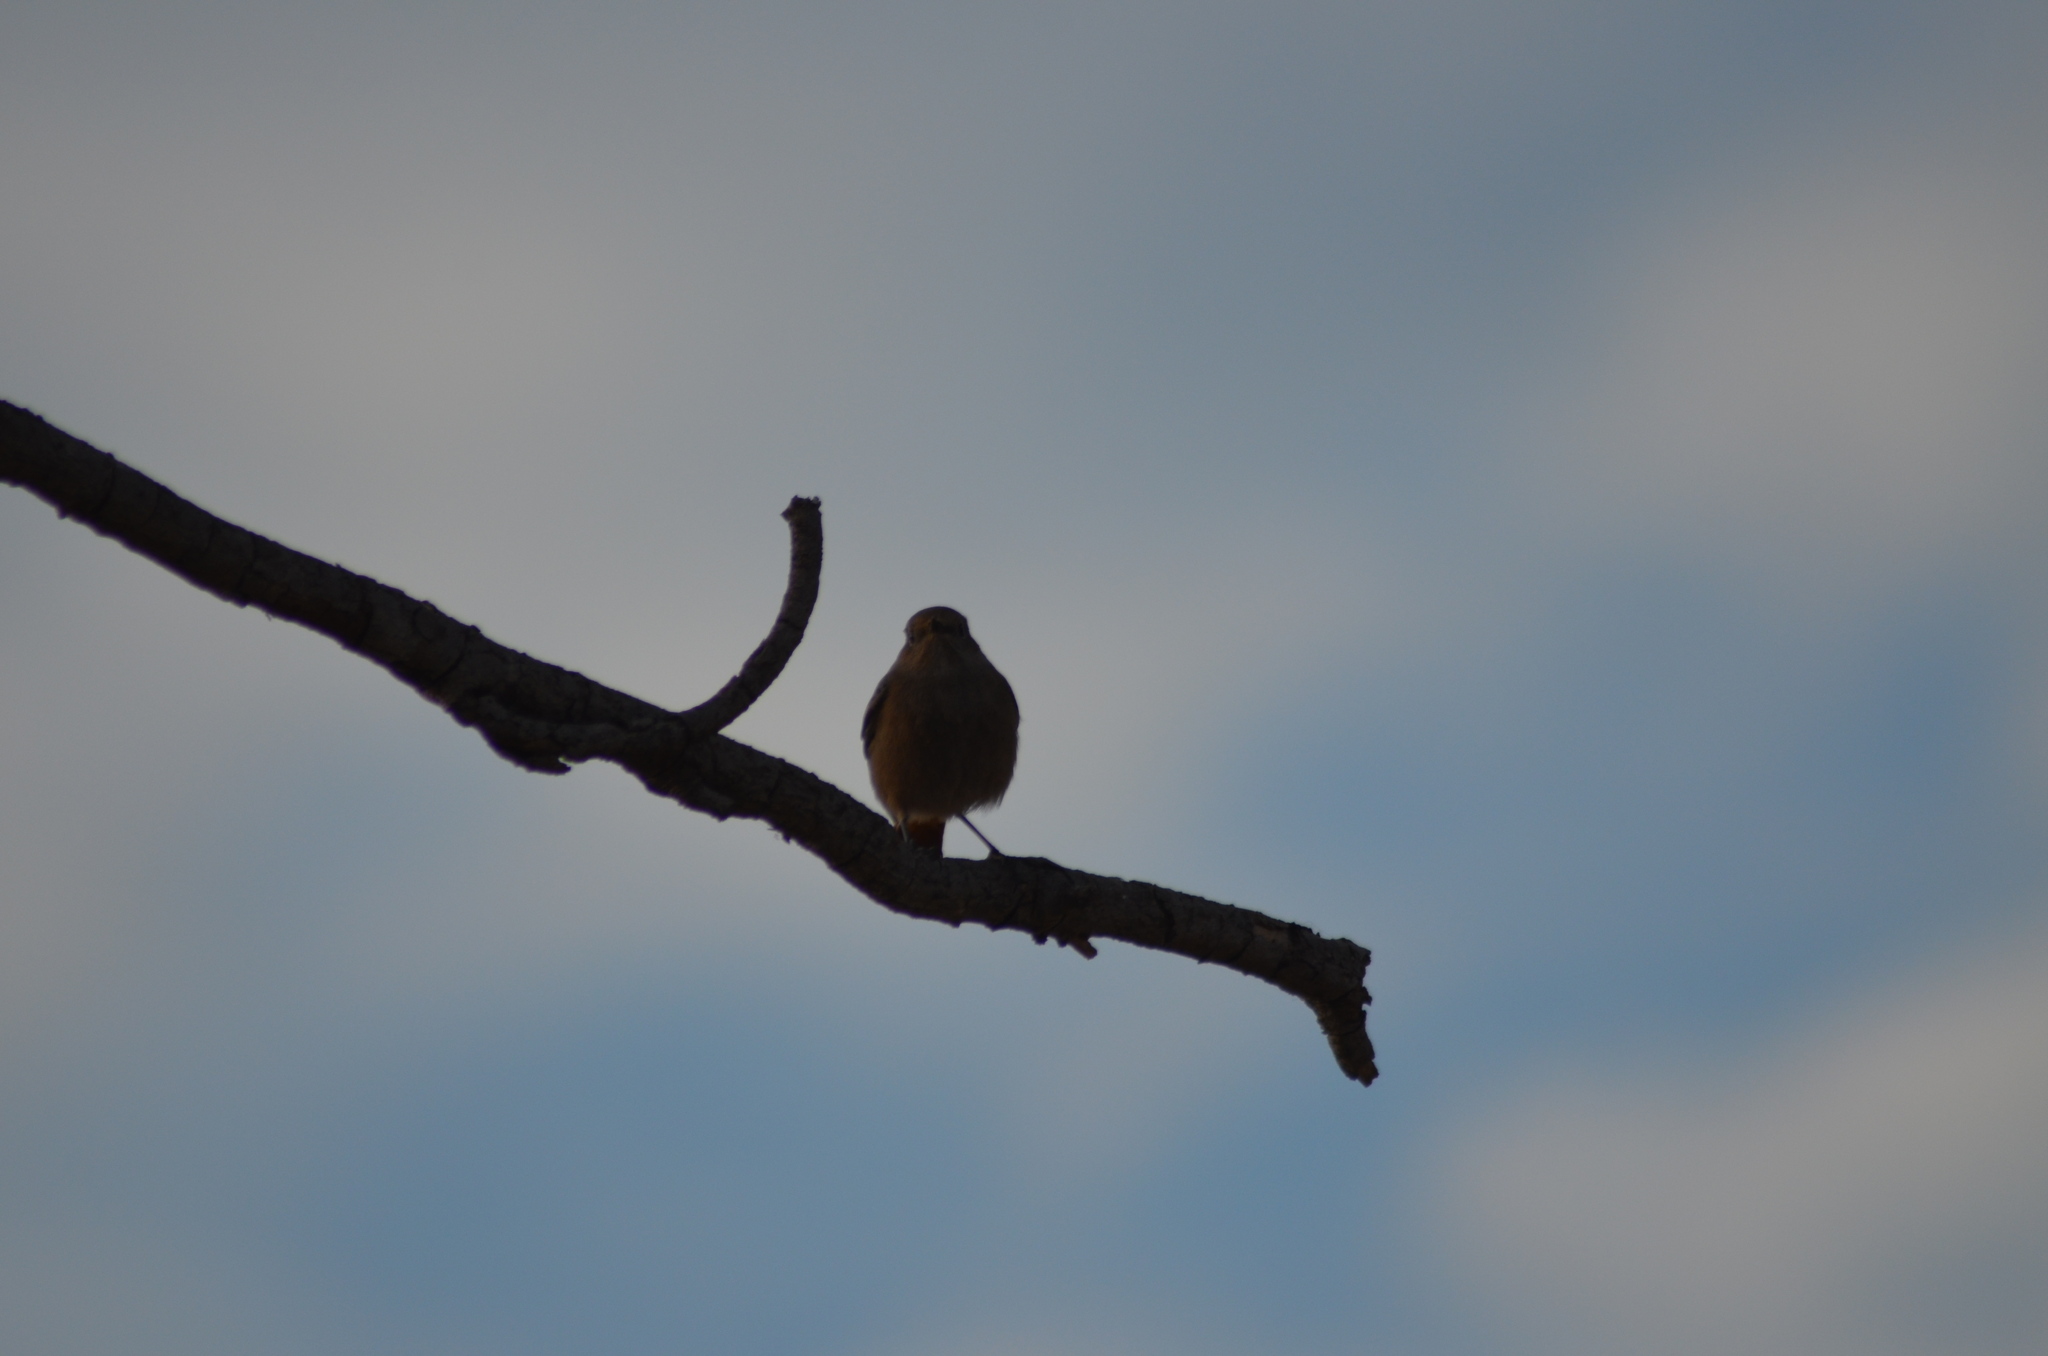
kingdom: Animalia
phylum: Chordata
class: Aves
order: Passeriformes
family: Muscicapidae
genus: Phoenicurus
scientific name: Phoenicurus ochruros
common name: Black redstart
